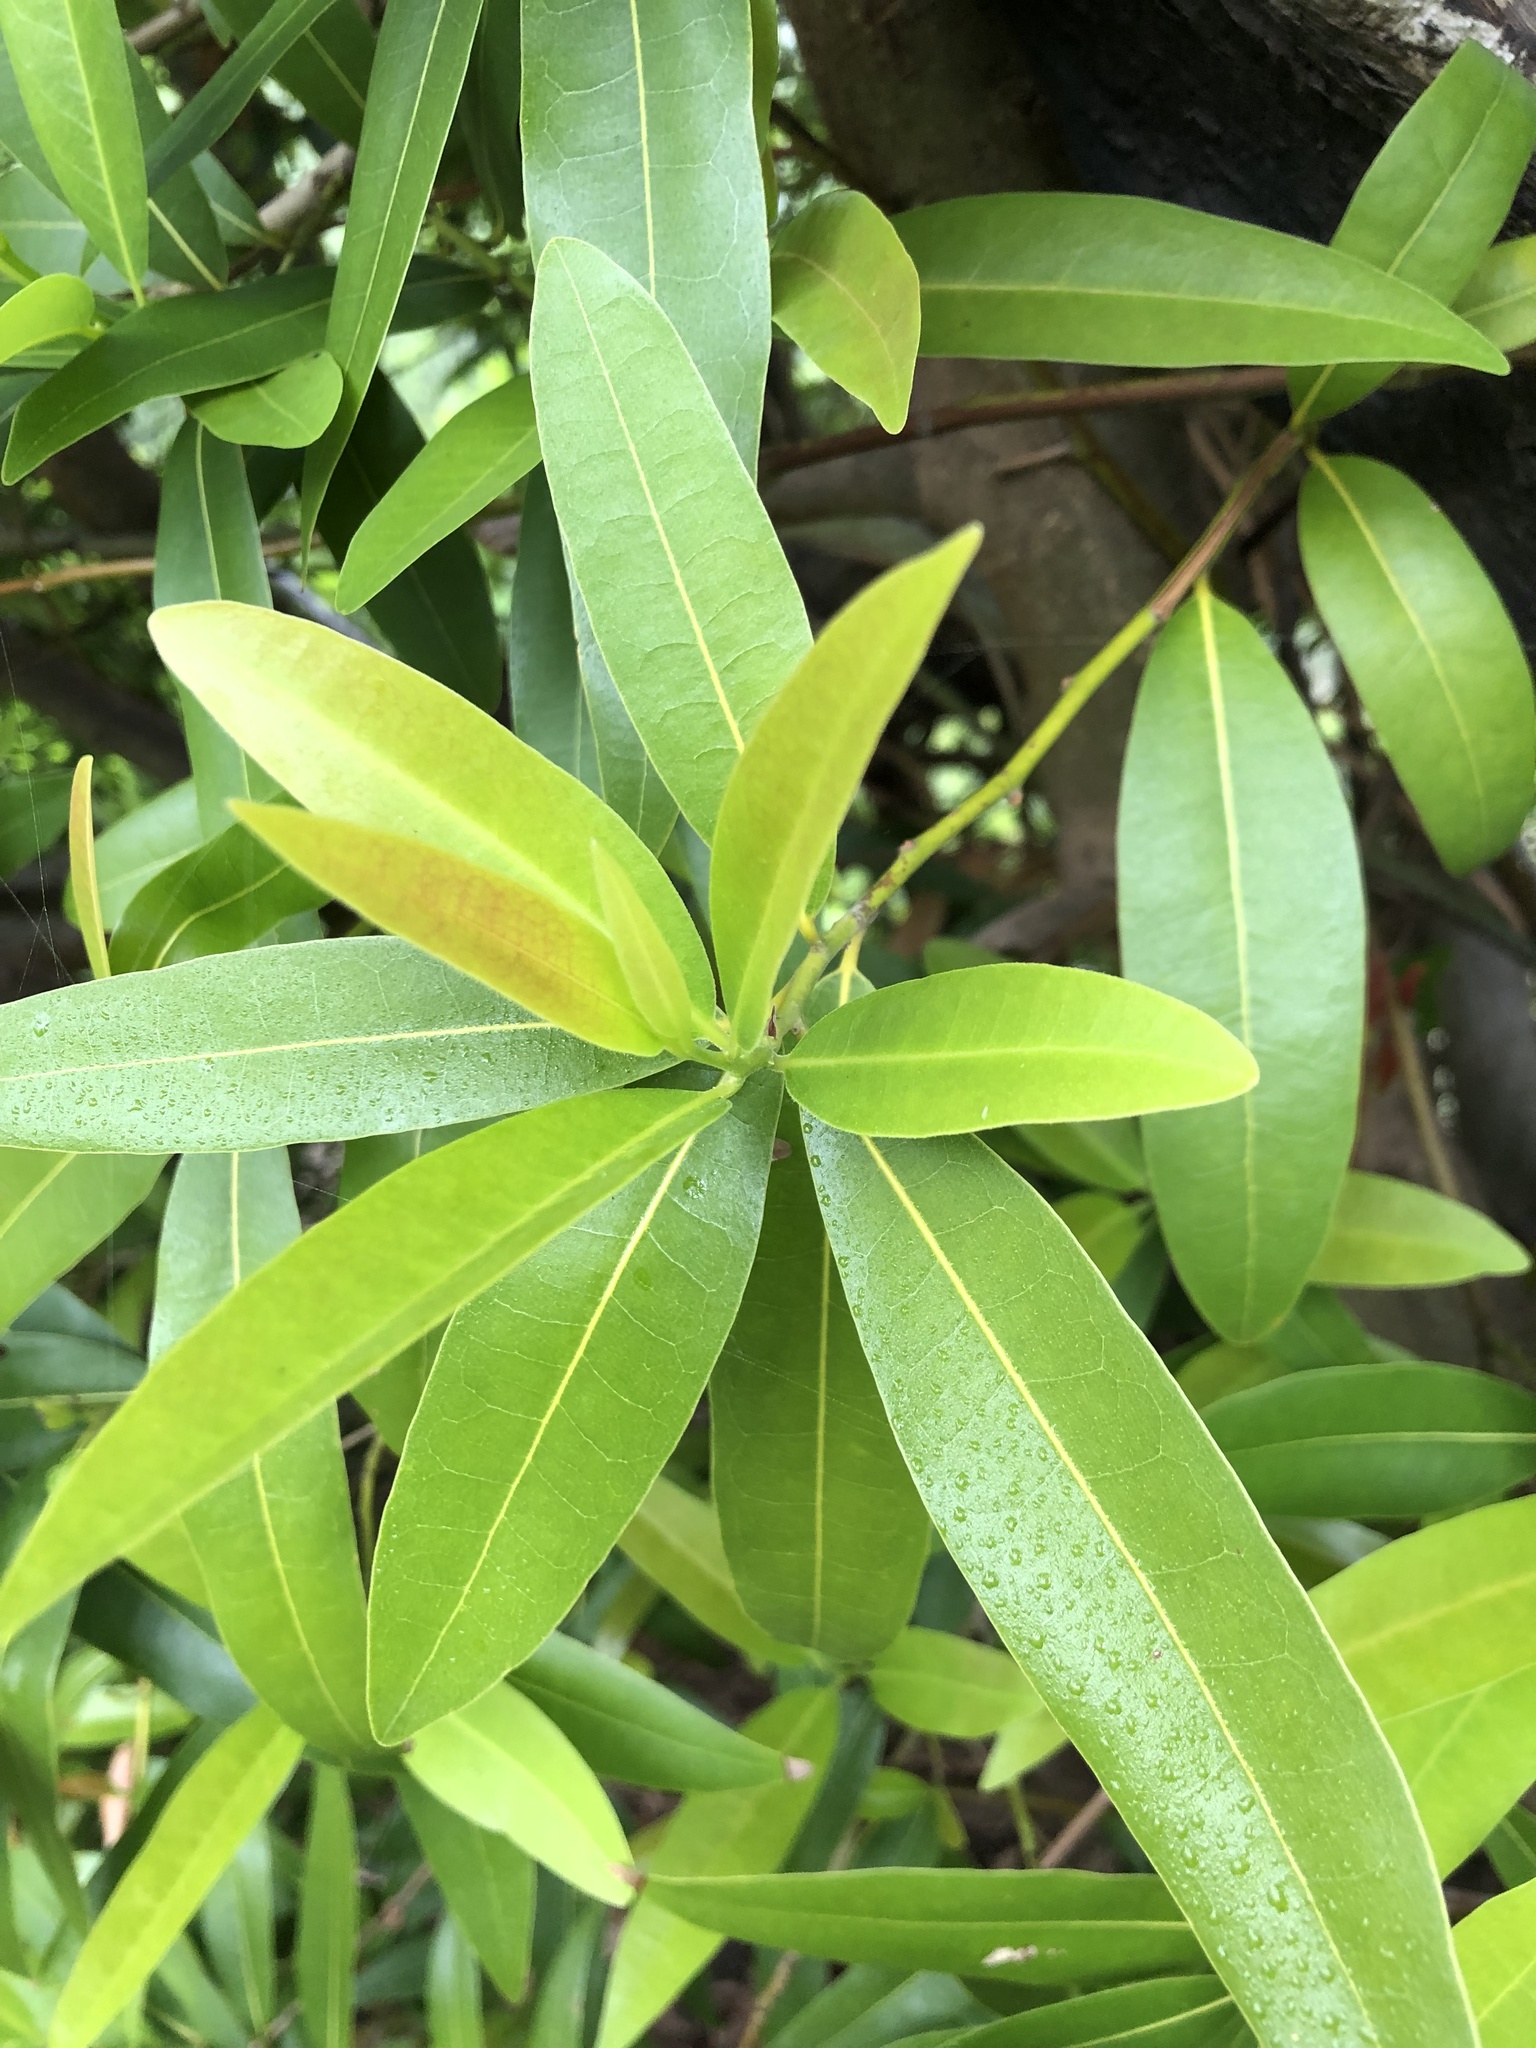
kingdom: Plantae
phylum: Tracheophyta
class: Magnoliopsida
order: Laurales
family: Lauraceae
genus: Umbellularia
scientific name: Umbellularia californica
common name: California bay
